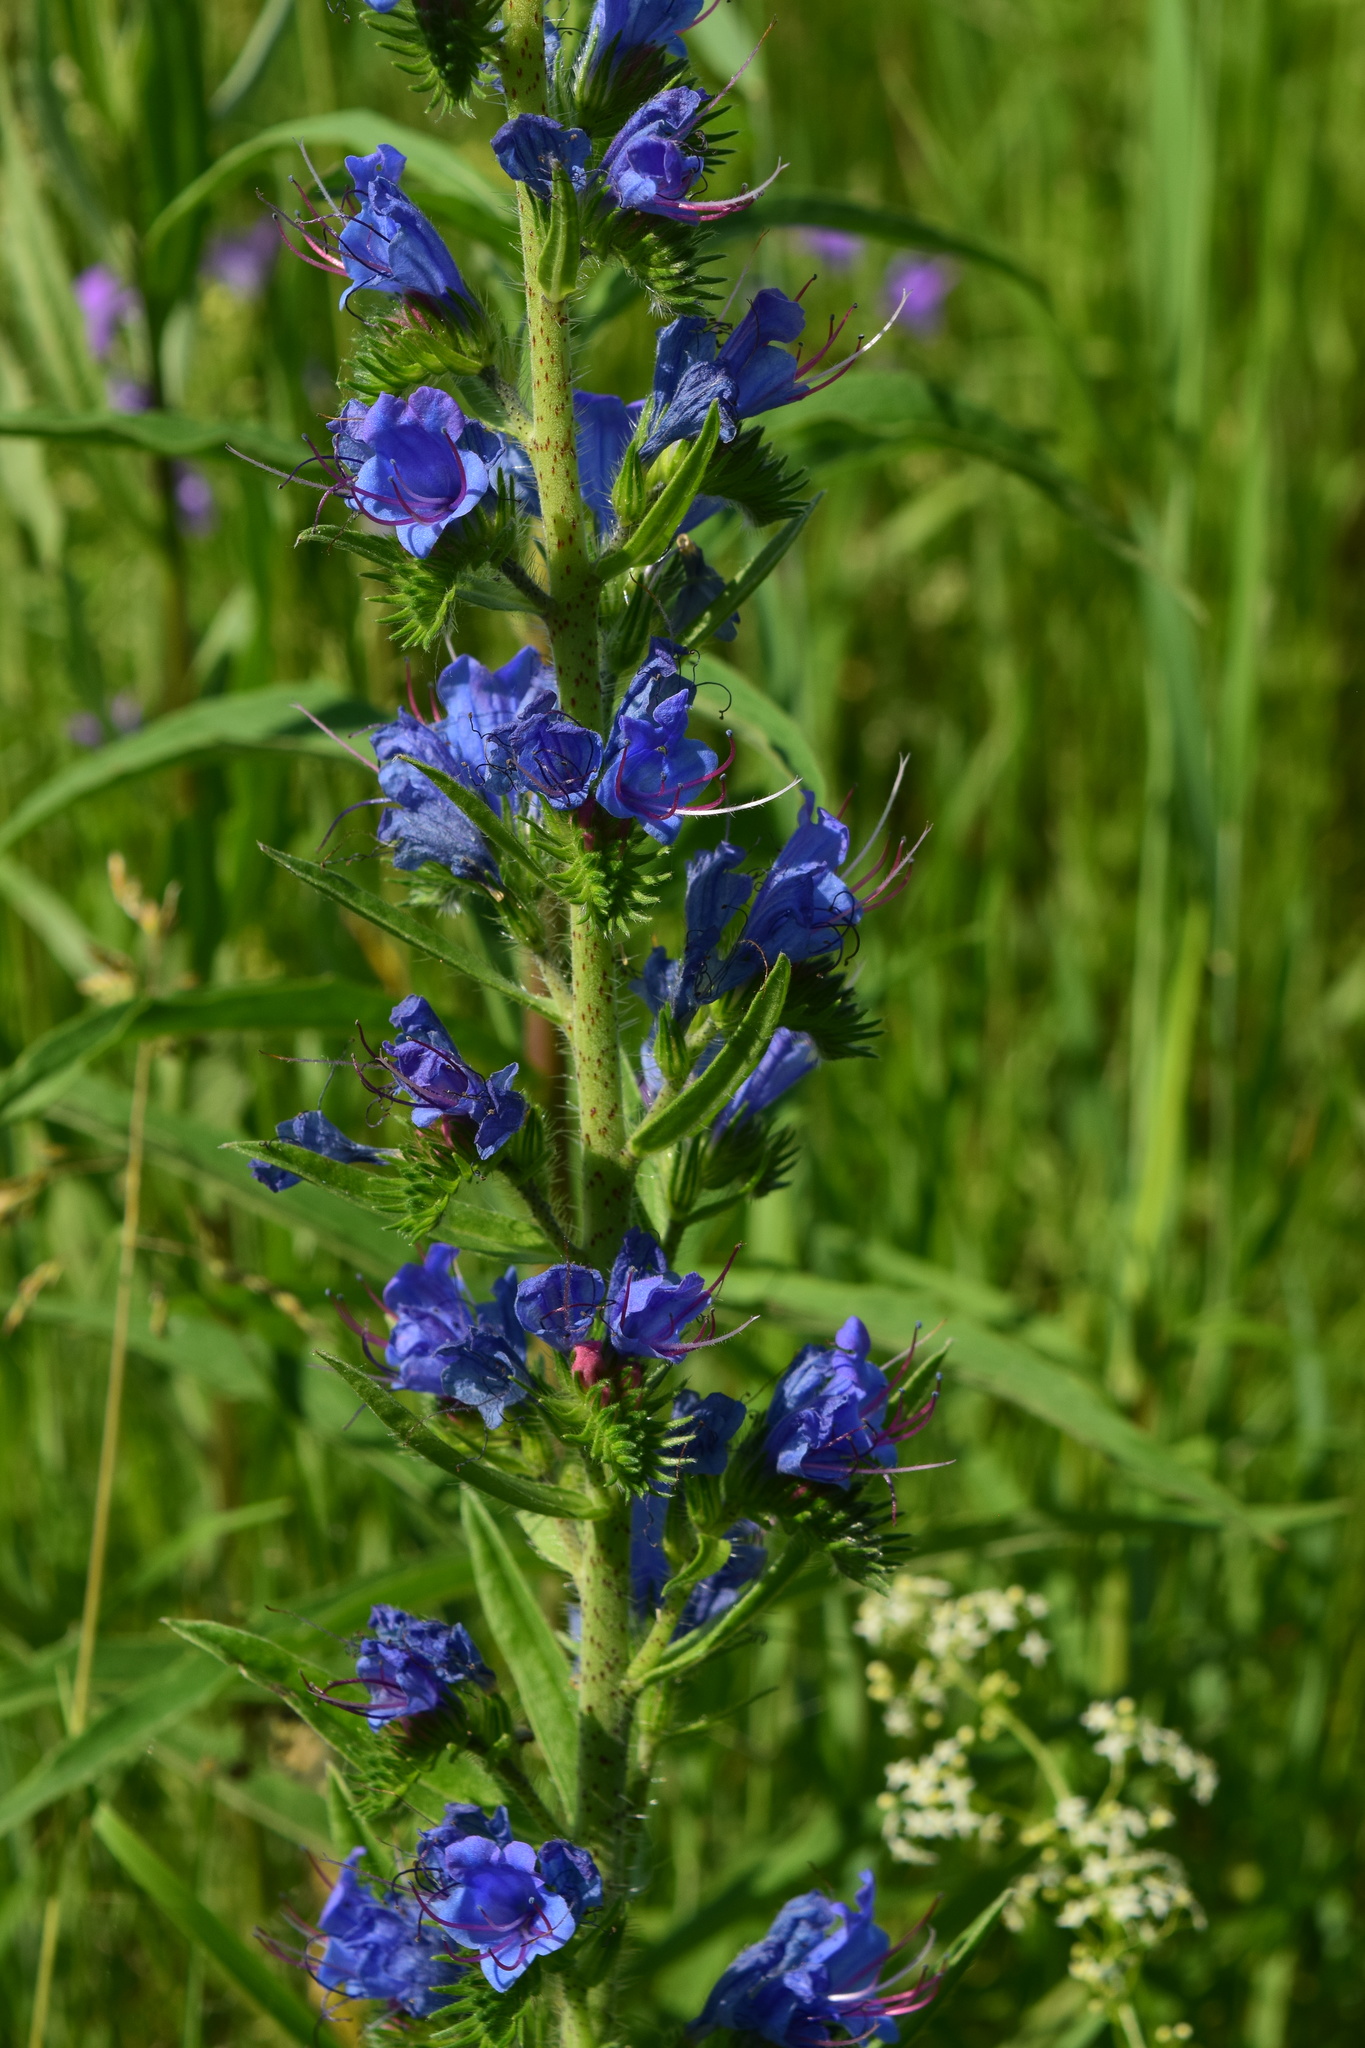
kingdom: Plantae
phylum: Tracheophyta
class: Magnoliopsida
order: Boraginales
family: Boraginaceae
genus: Echium
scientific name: Echium vulgare
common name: Common viper's bugloss
